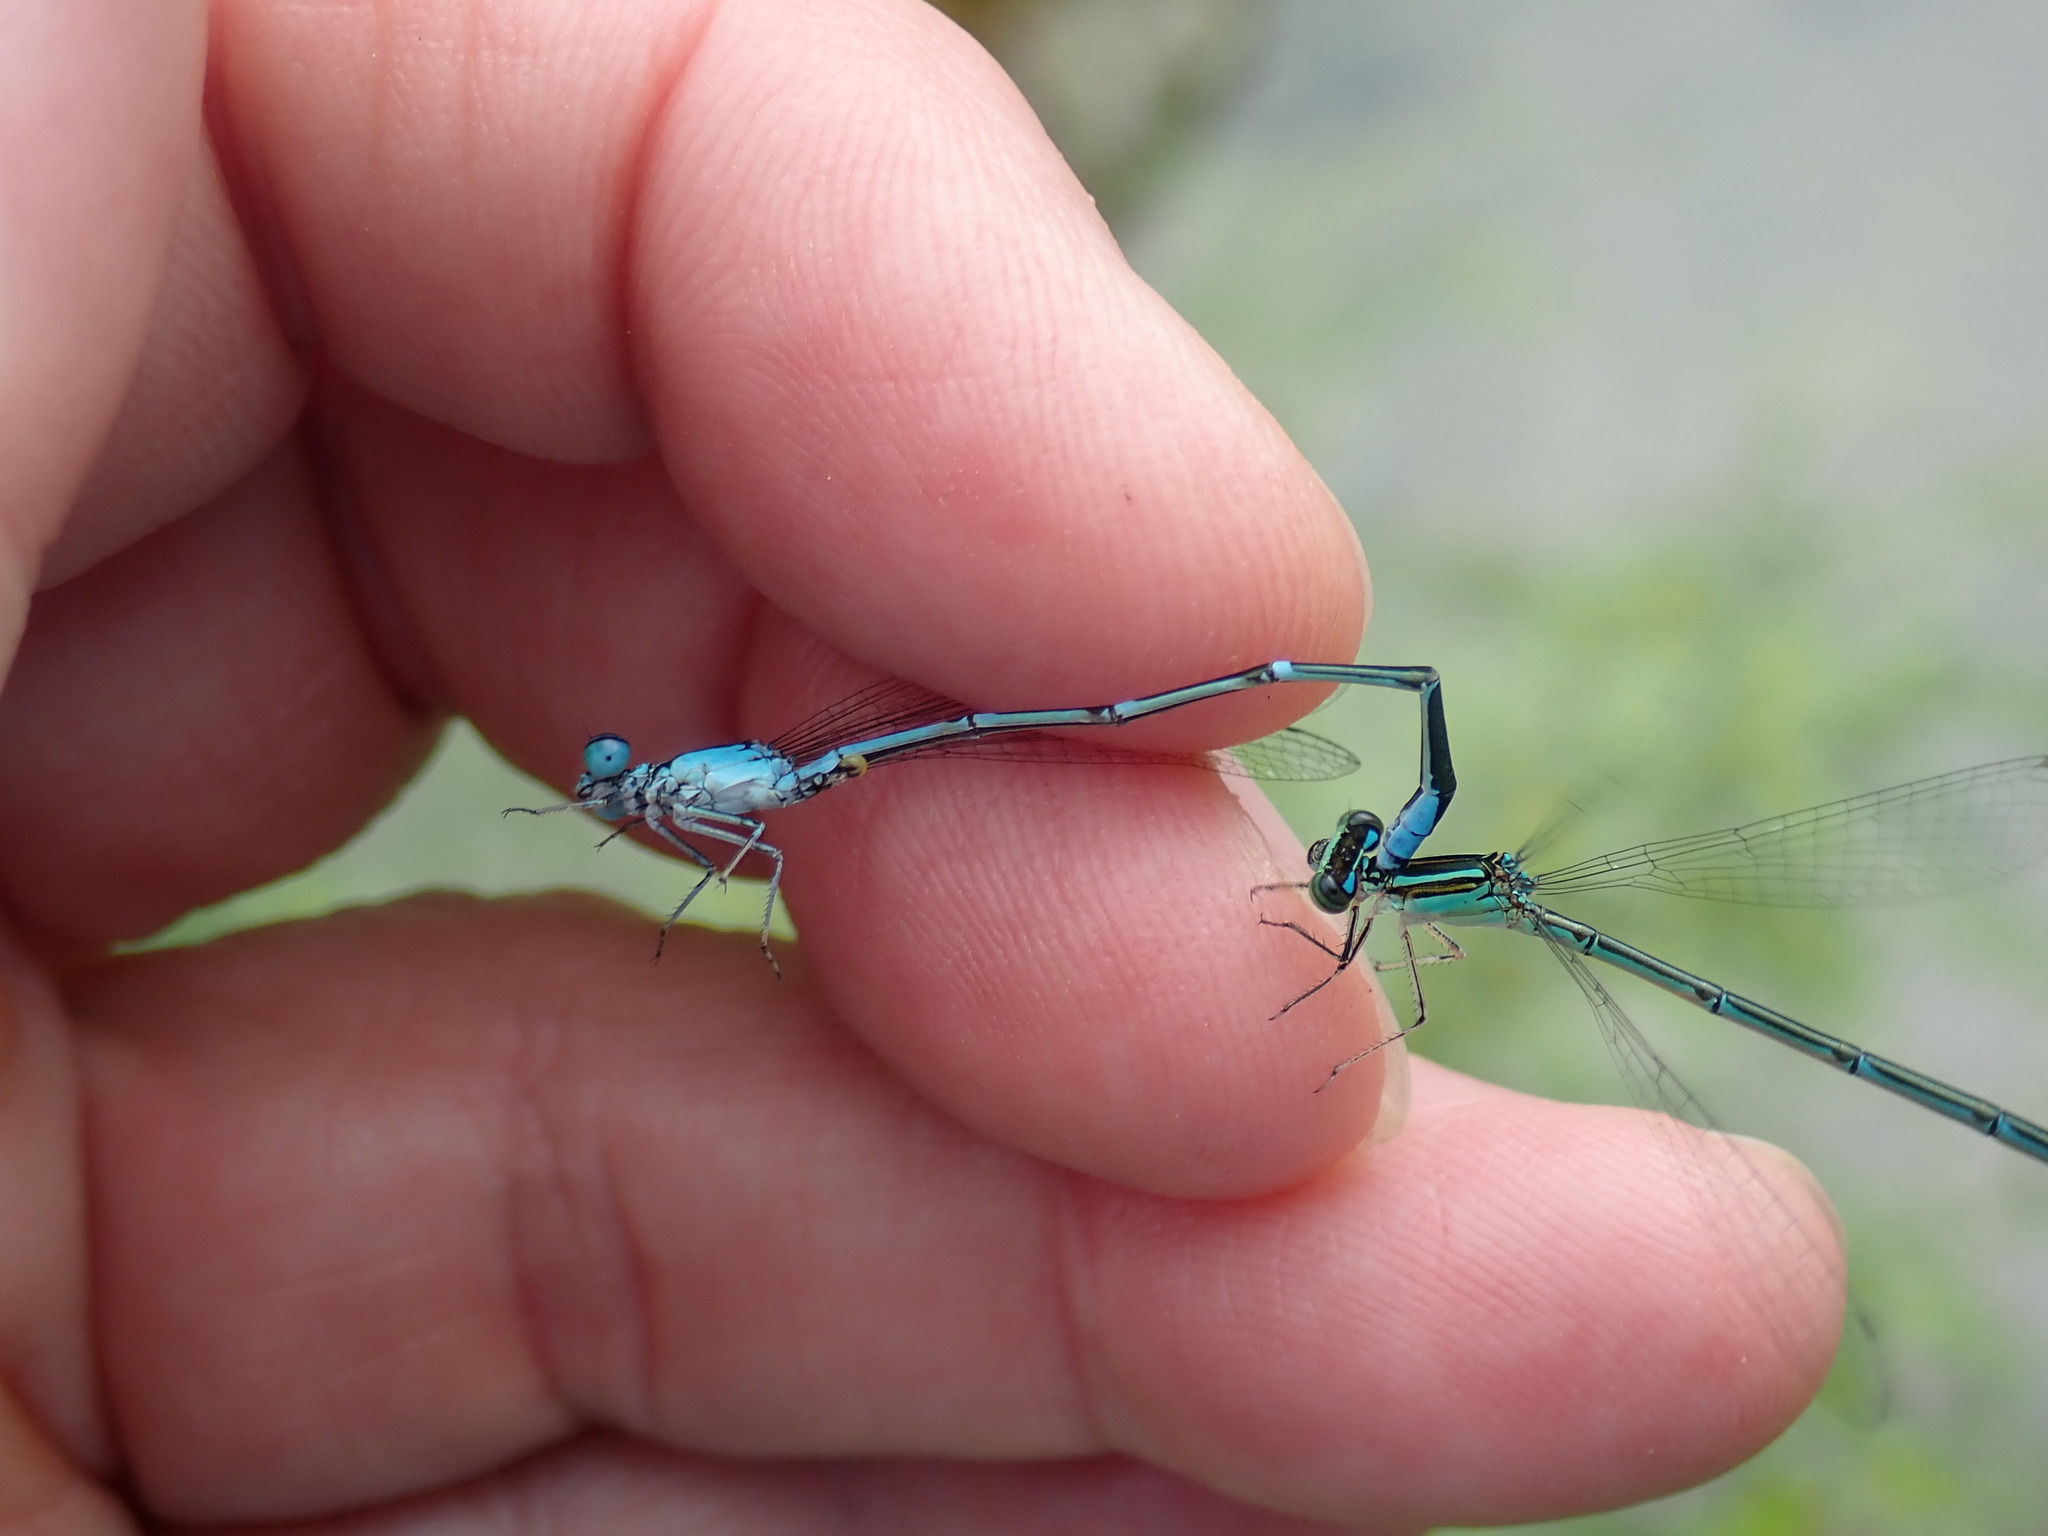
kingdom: Animalia
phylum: Arthropoda
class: Insecta
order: Odonata
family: Coenagrionidae
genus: Enallagma
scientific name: Enallagma exsulans
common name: Stream bluet
